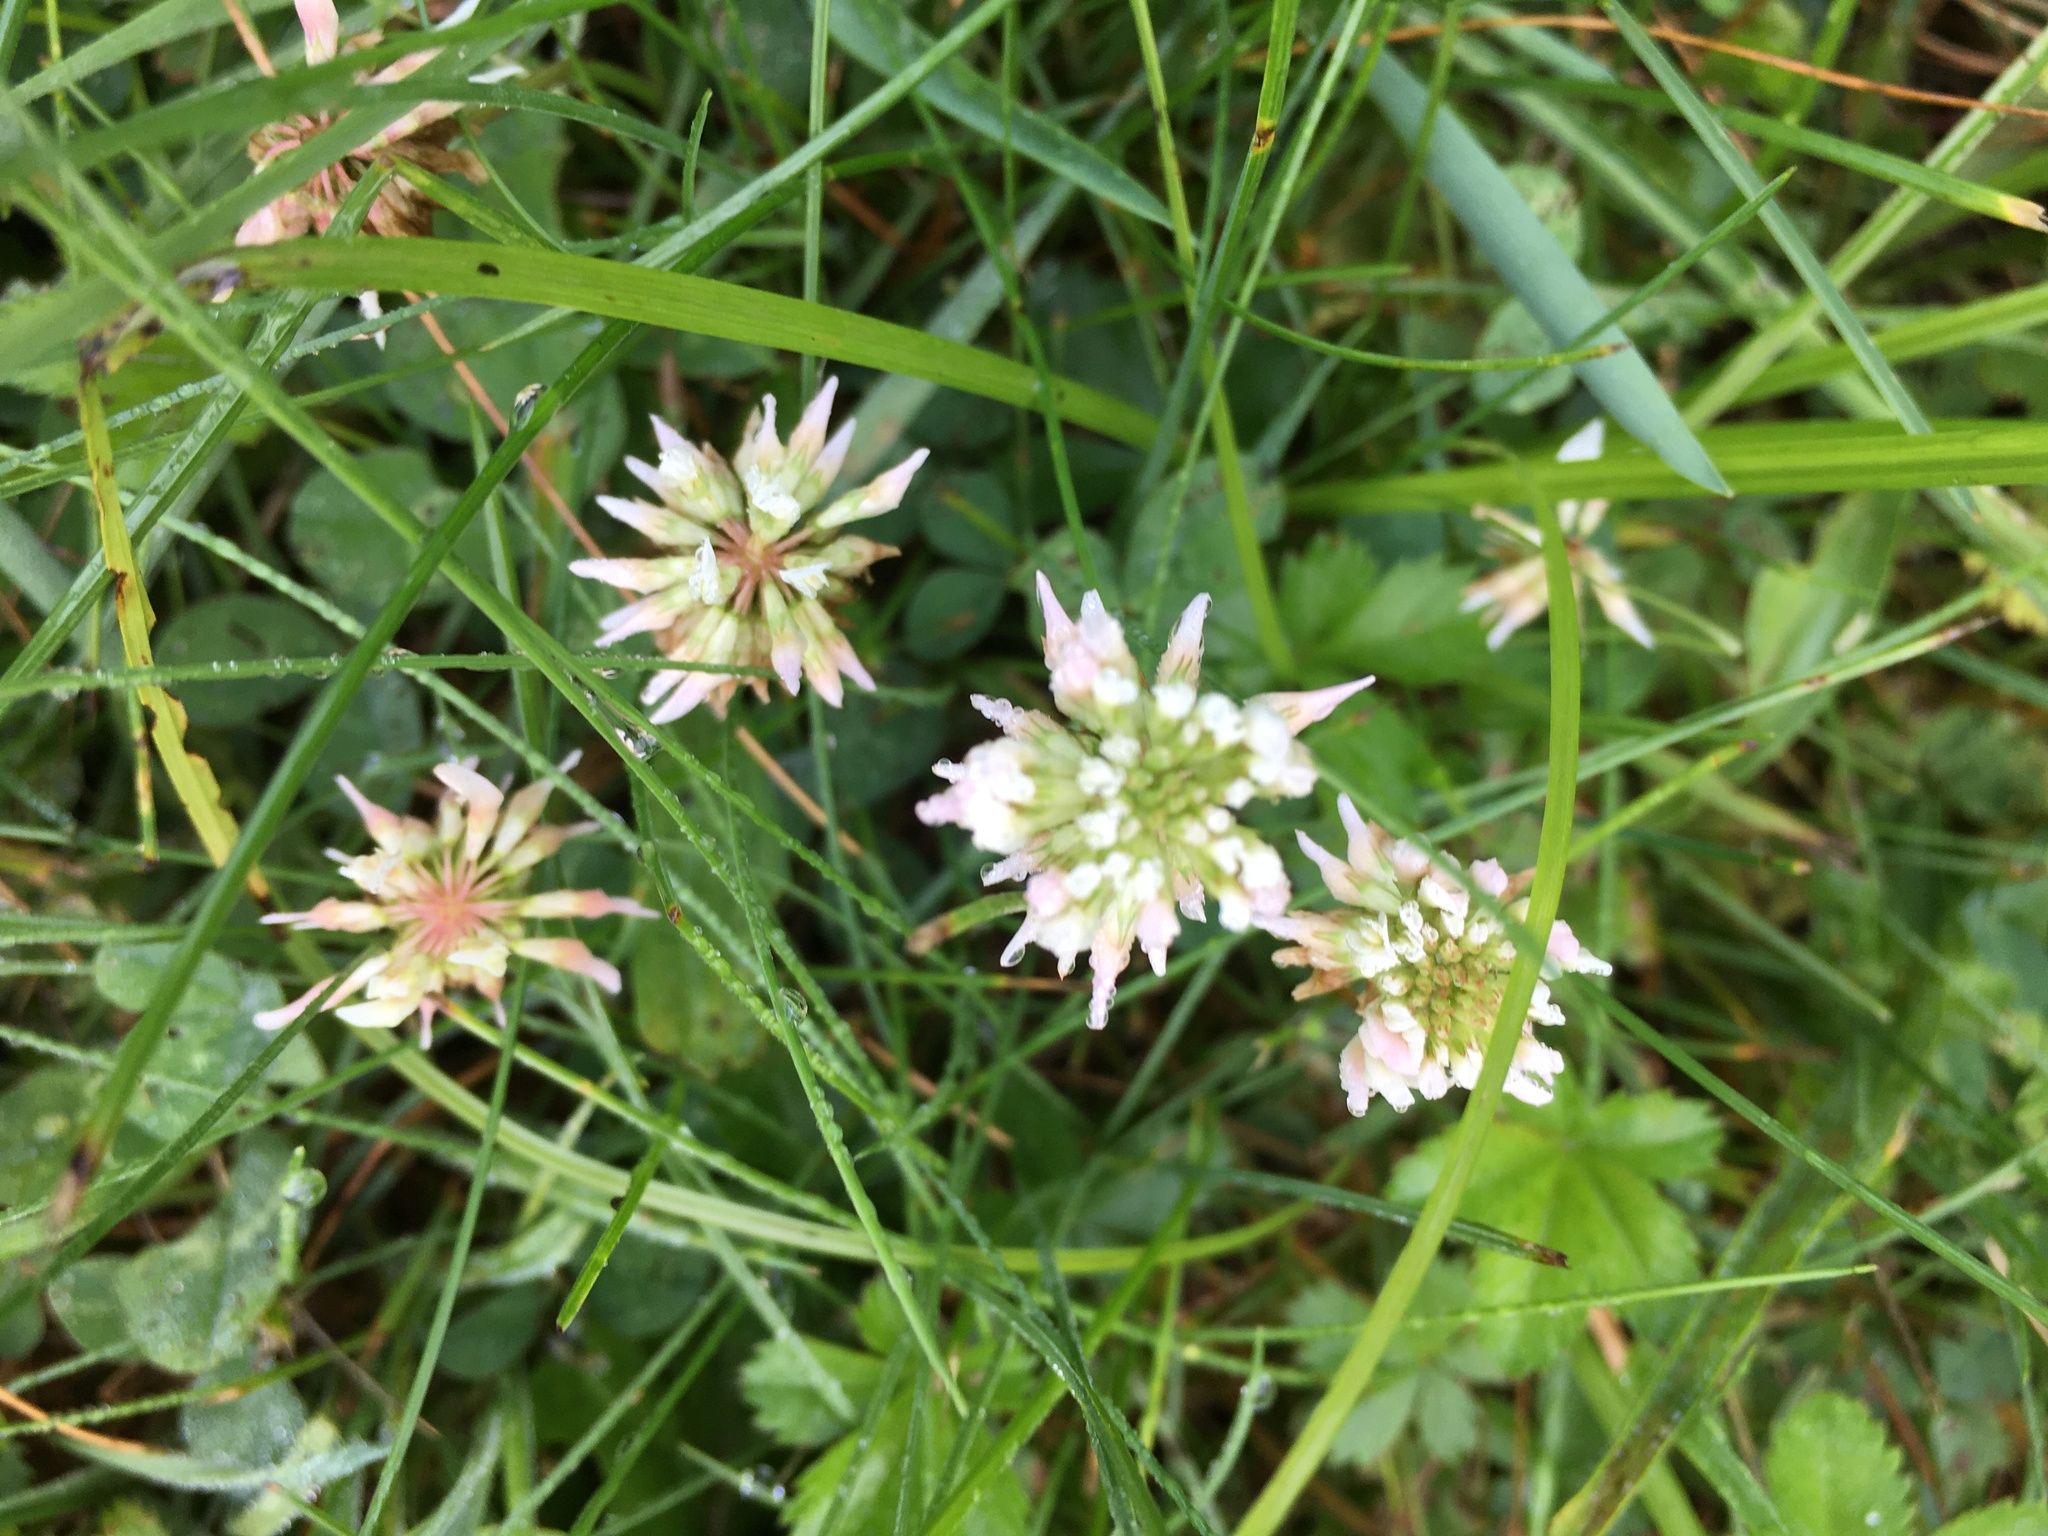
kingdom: Plantae
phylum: Tracheophyta
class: Magnoliopsida
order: Fabales
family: Fabaceae
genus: Trifolium
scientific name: Trifolium repens
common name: White clover
